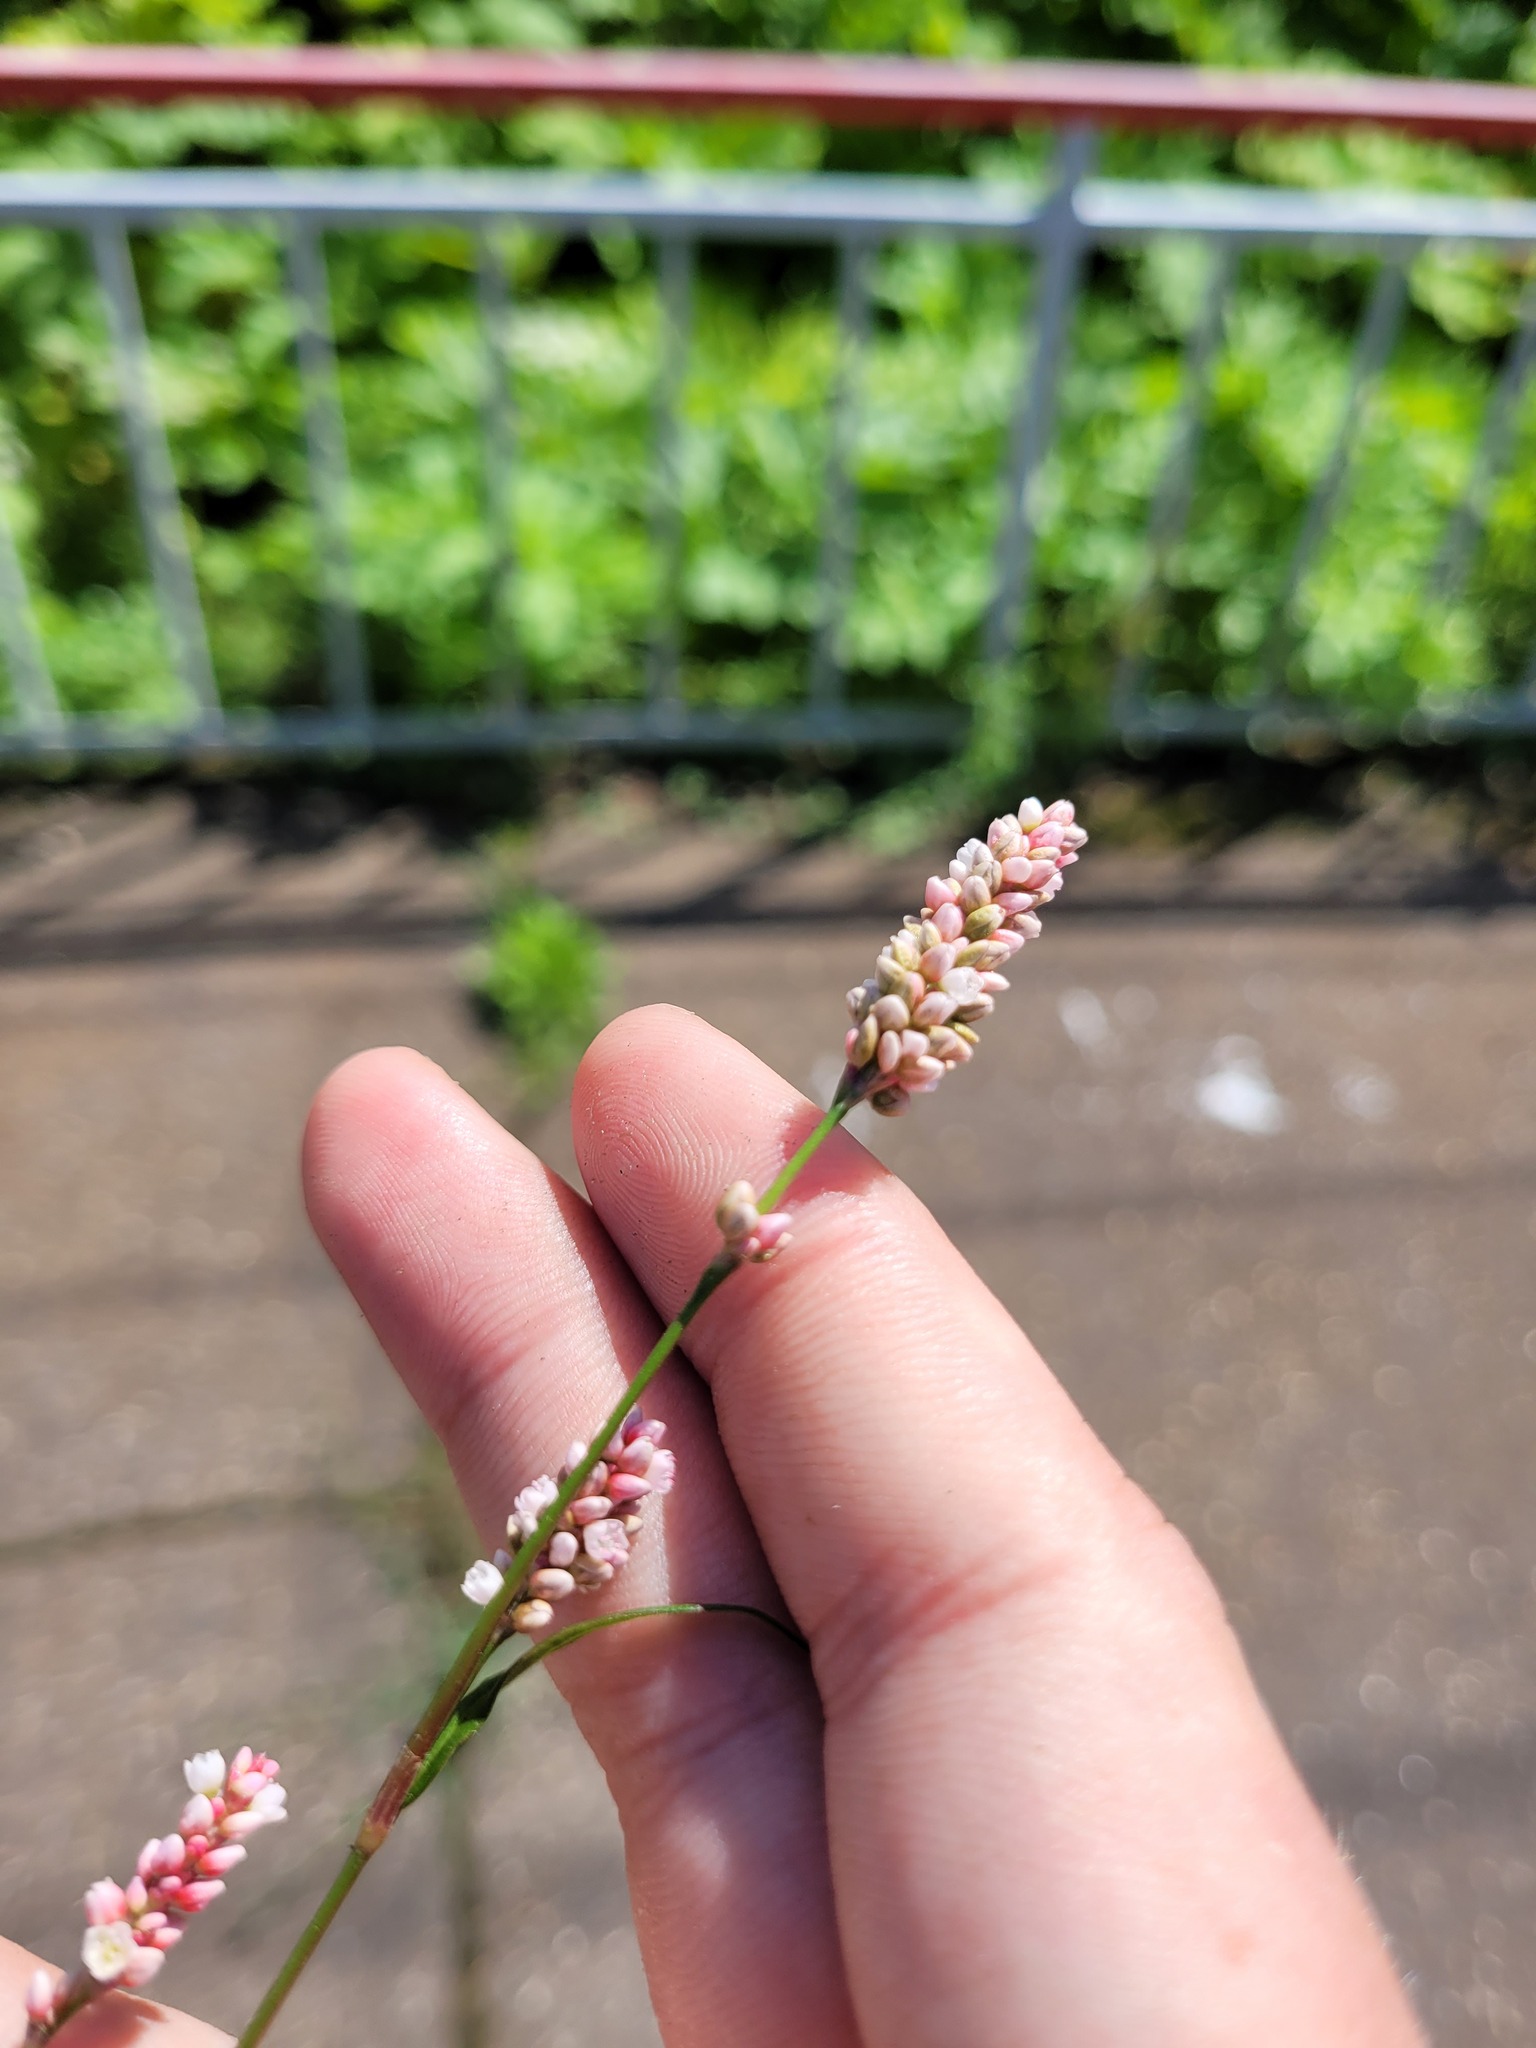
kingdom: Plantae
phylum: Tracheophyta
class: Magnoliopsida
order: Caryophyllales
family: Polygonaceae
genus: Persicaria
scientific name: Persicaria maculosa
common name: Redshank
